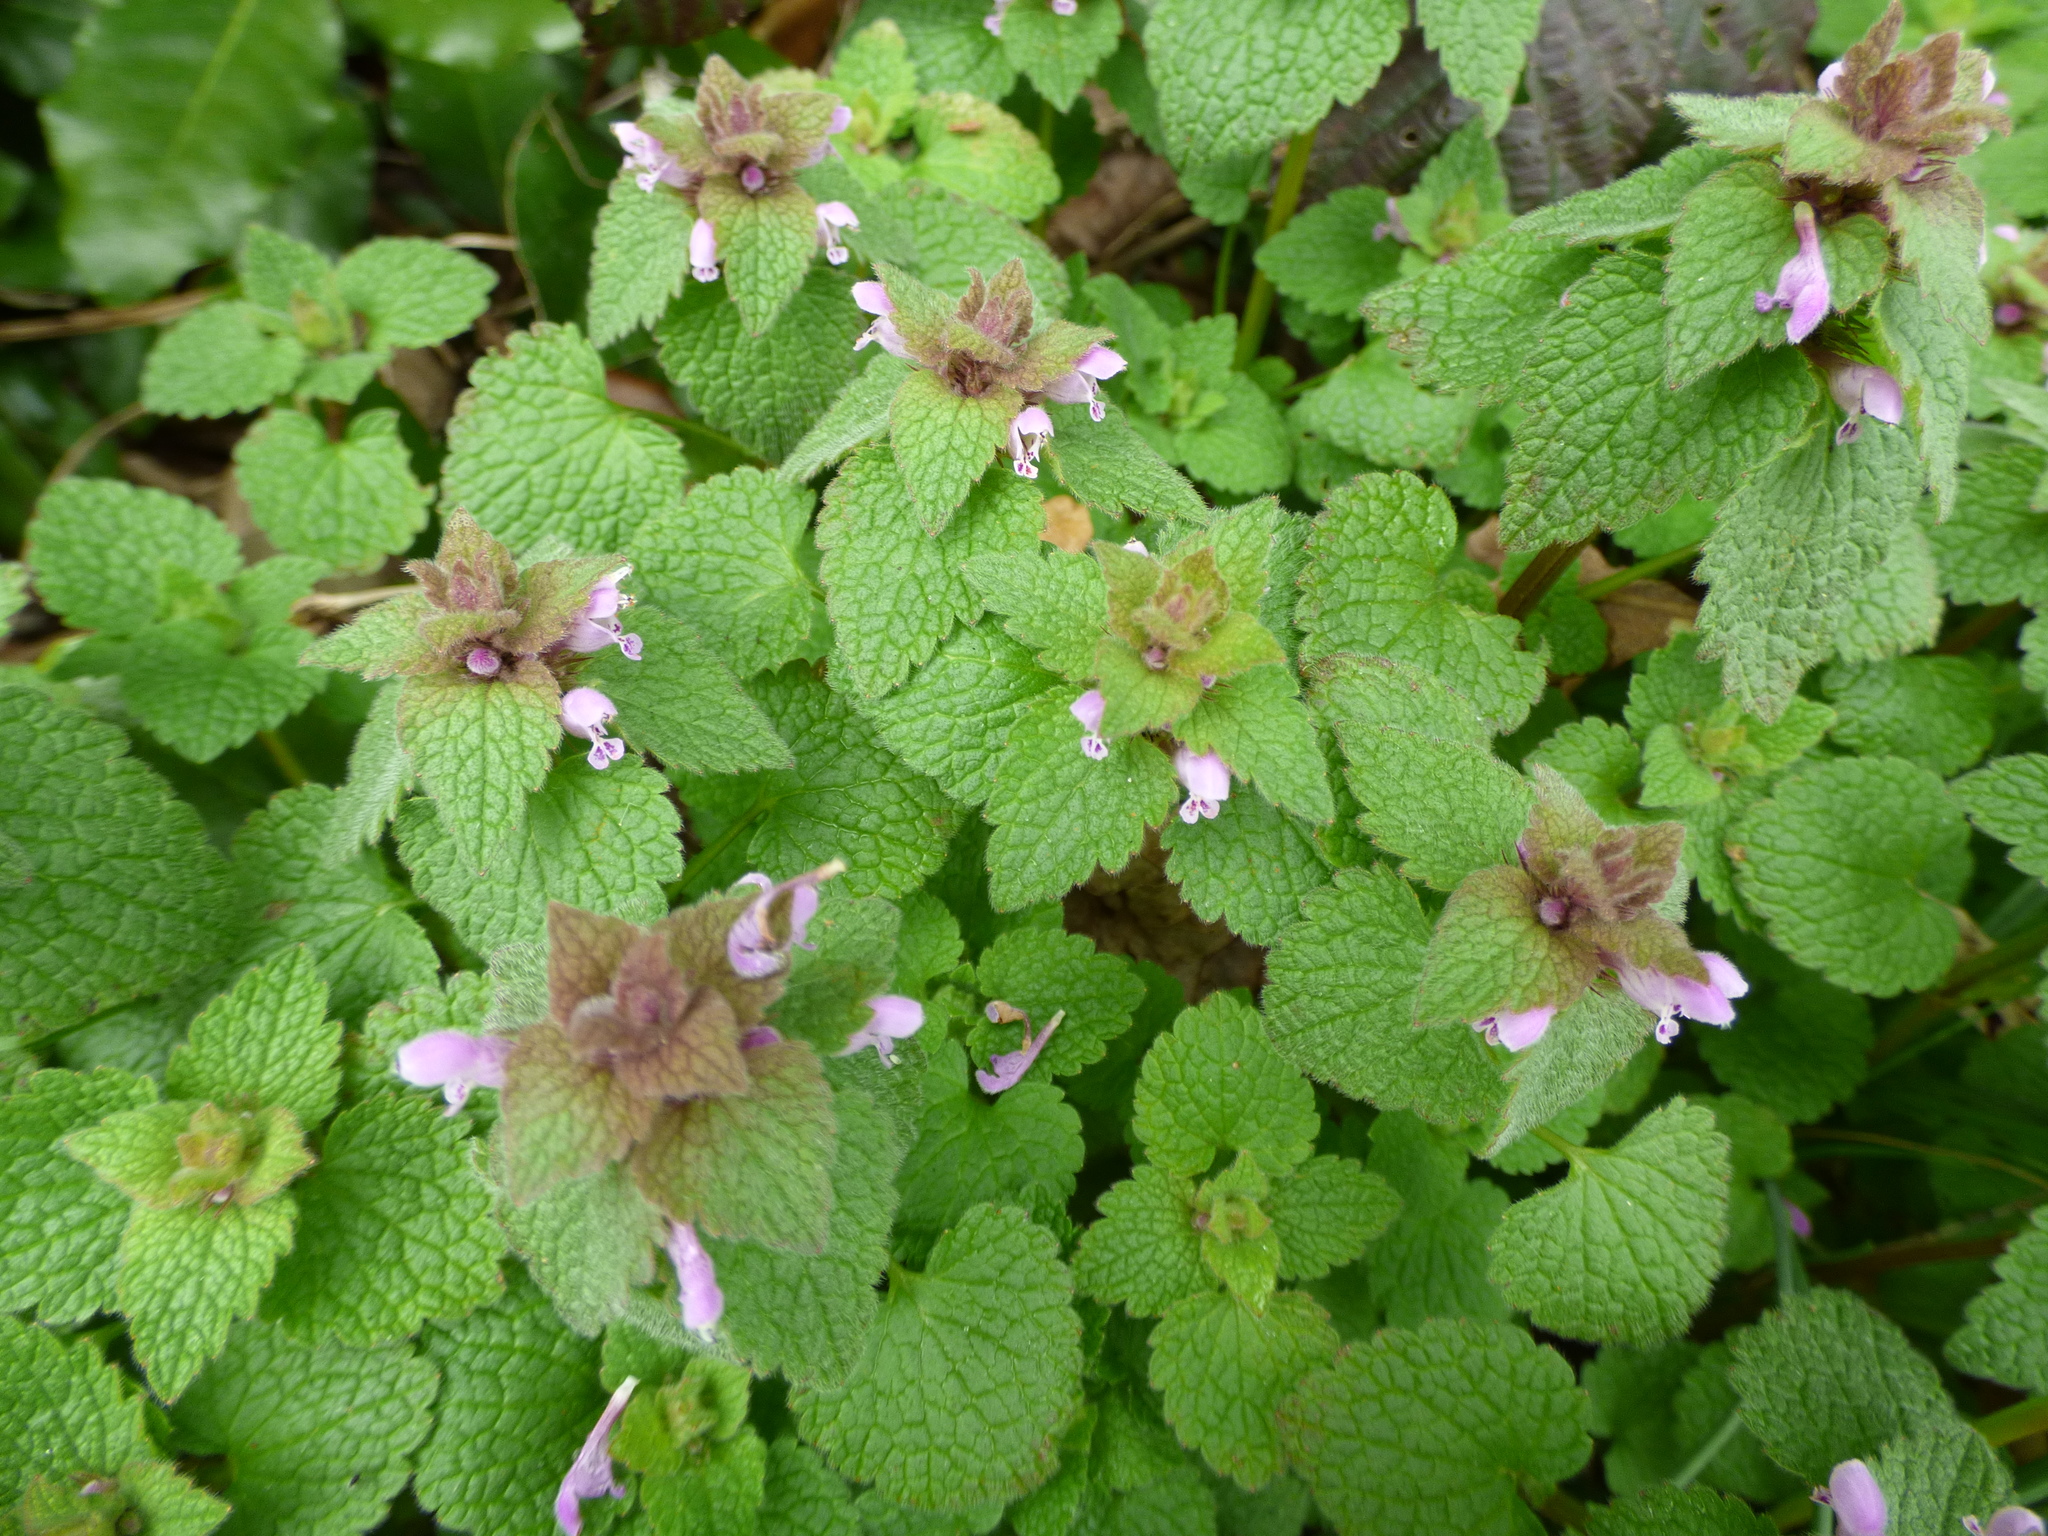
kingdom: Plantae
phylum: Tracheophyta
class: Magnoliopsida
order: Lamiales
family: Lamiaceae
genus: Lamium
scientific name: Lamium purpureum
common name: Red dead-nettle
